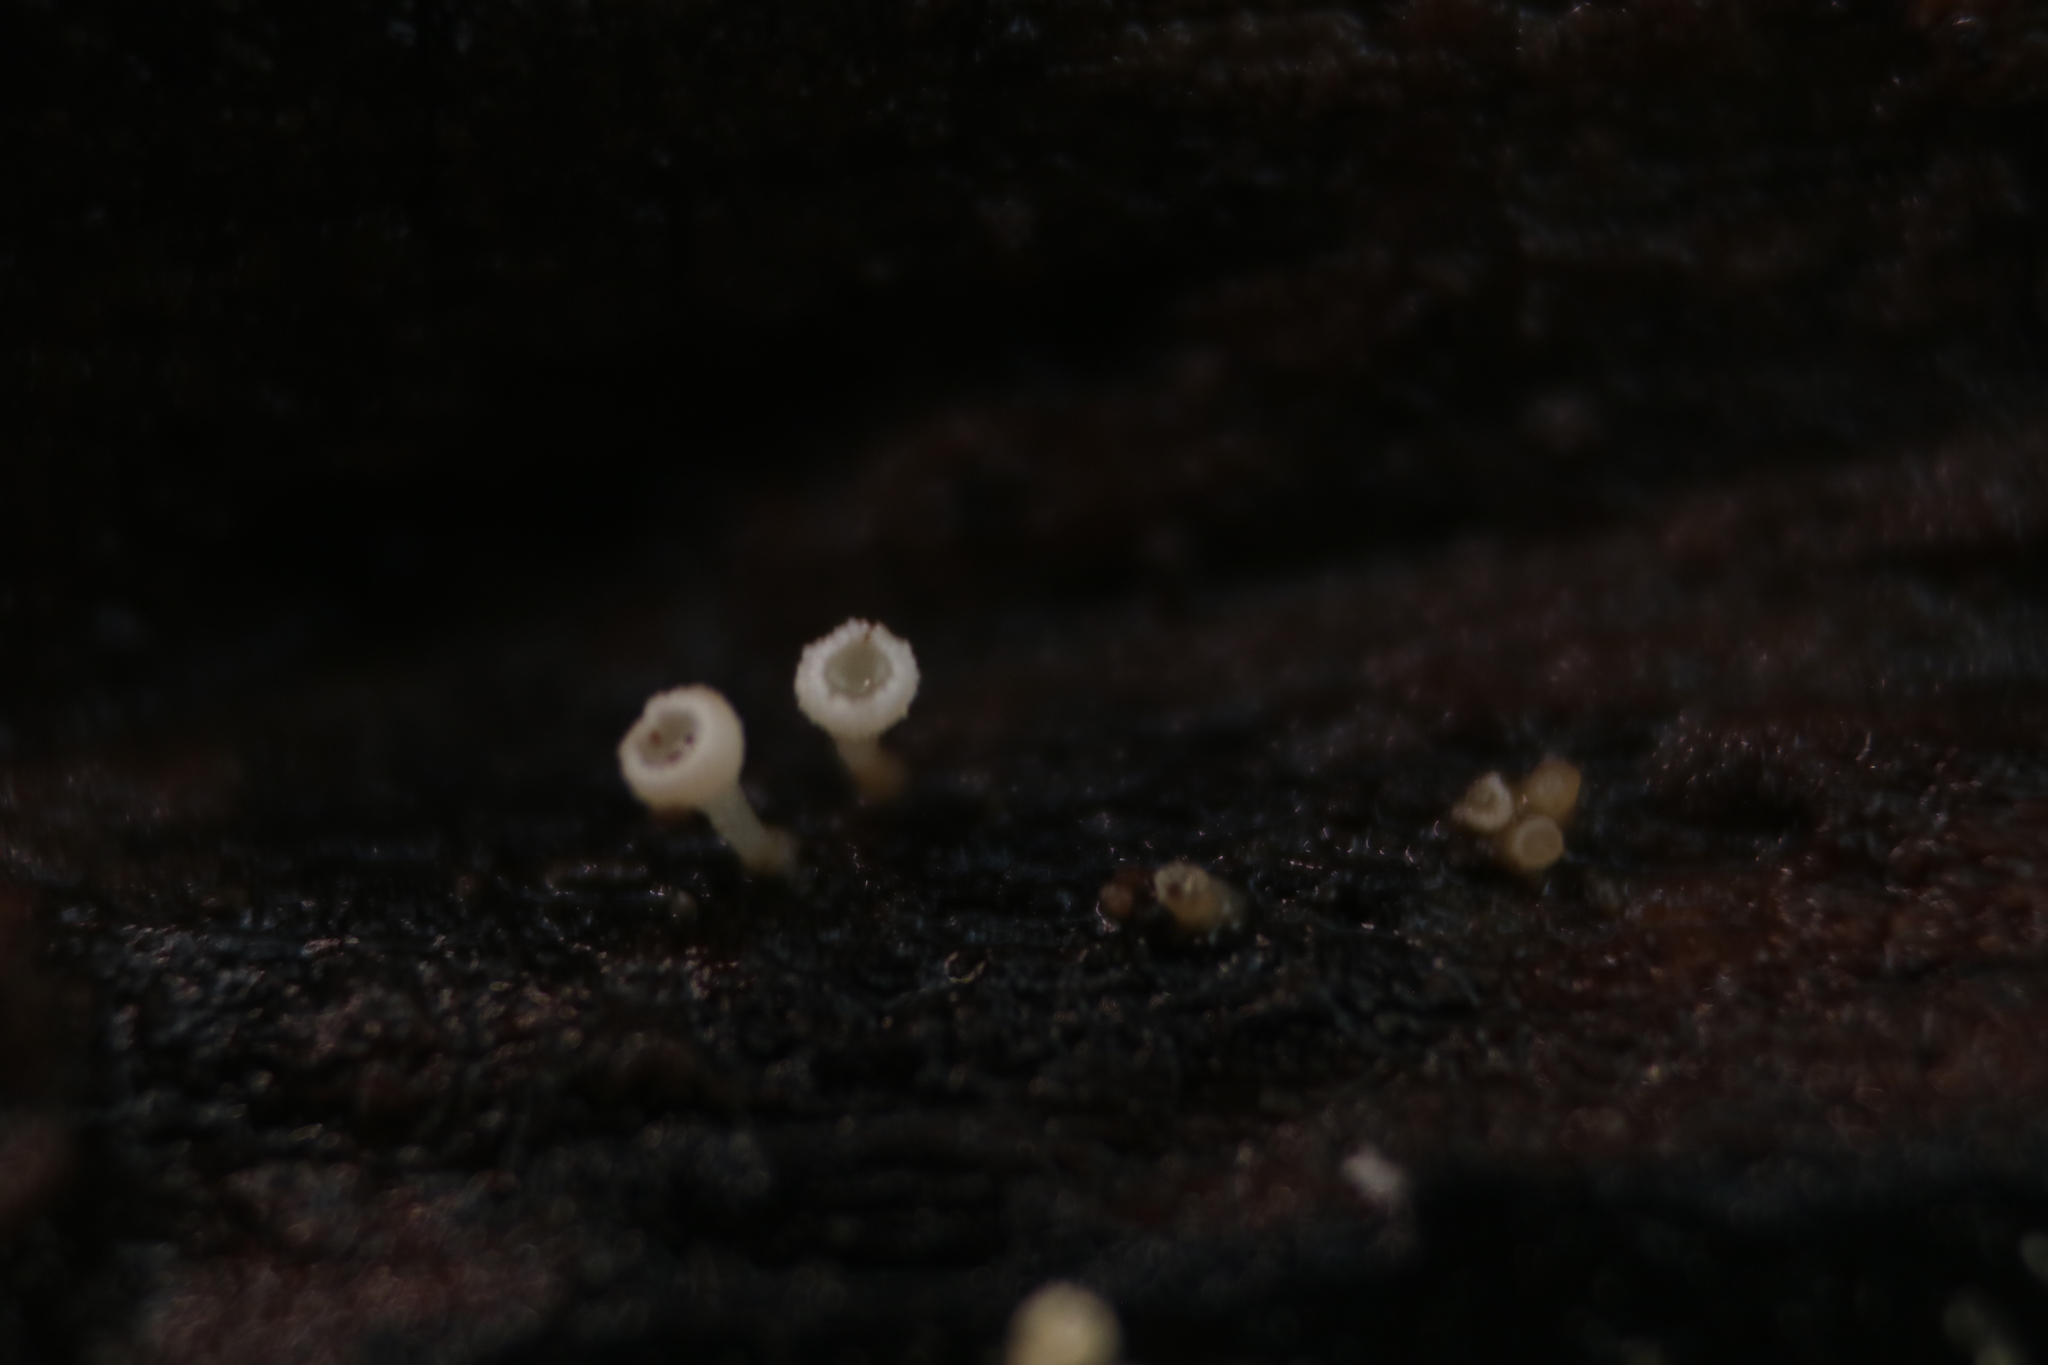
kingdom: Fungi
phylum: Ascomycota
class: Leotiomycetes
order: Helotiales
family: Lachnaceae
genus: Lachnum
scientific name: Lachnum virgineum
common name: Snowy disco
